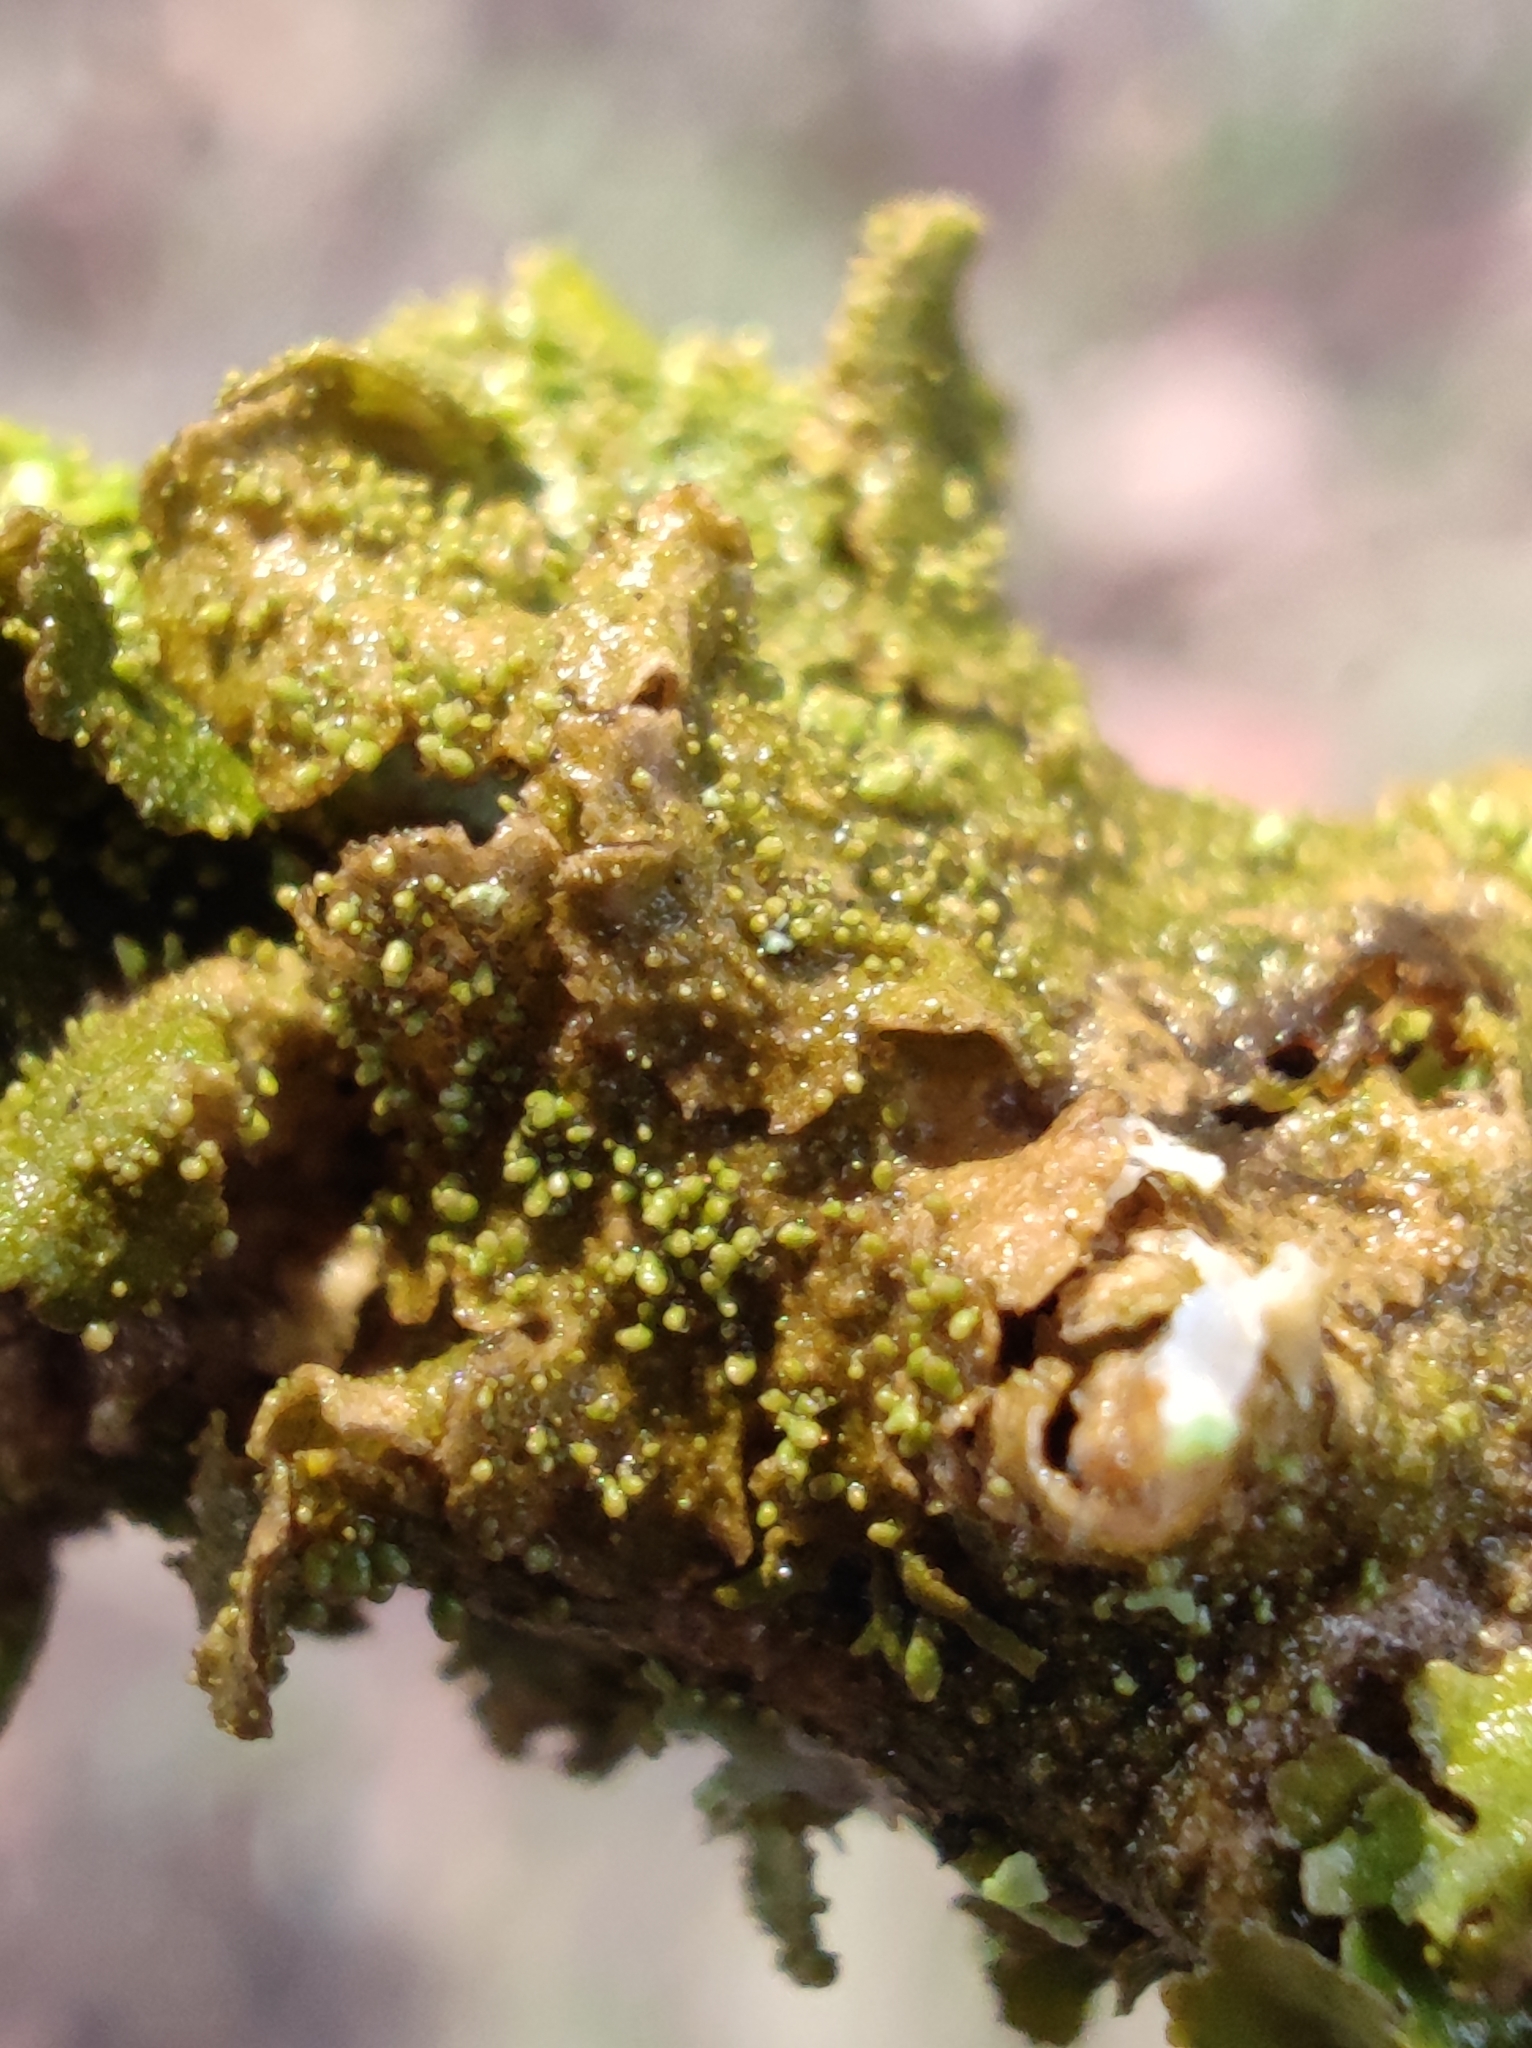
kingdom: Fungi
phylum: Ascomycota
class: Lecanoromycetes
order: Lecanorales
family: Parmeliaceae
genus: Melanohalea
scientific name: Melanohalea exasperatula
